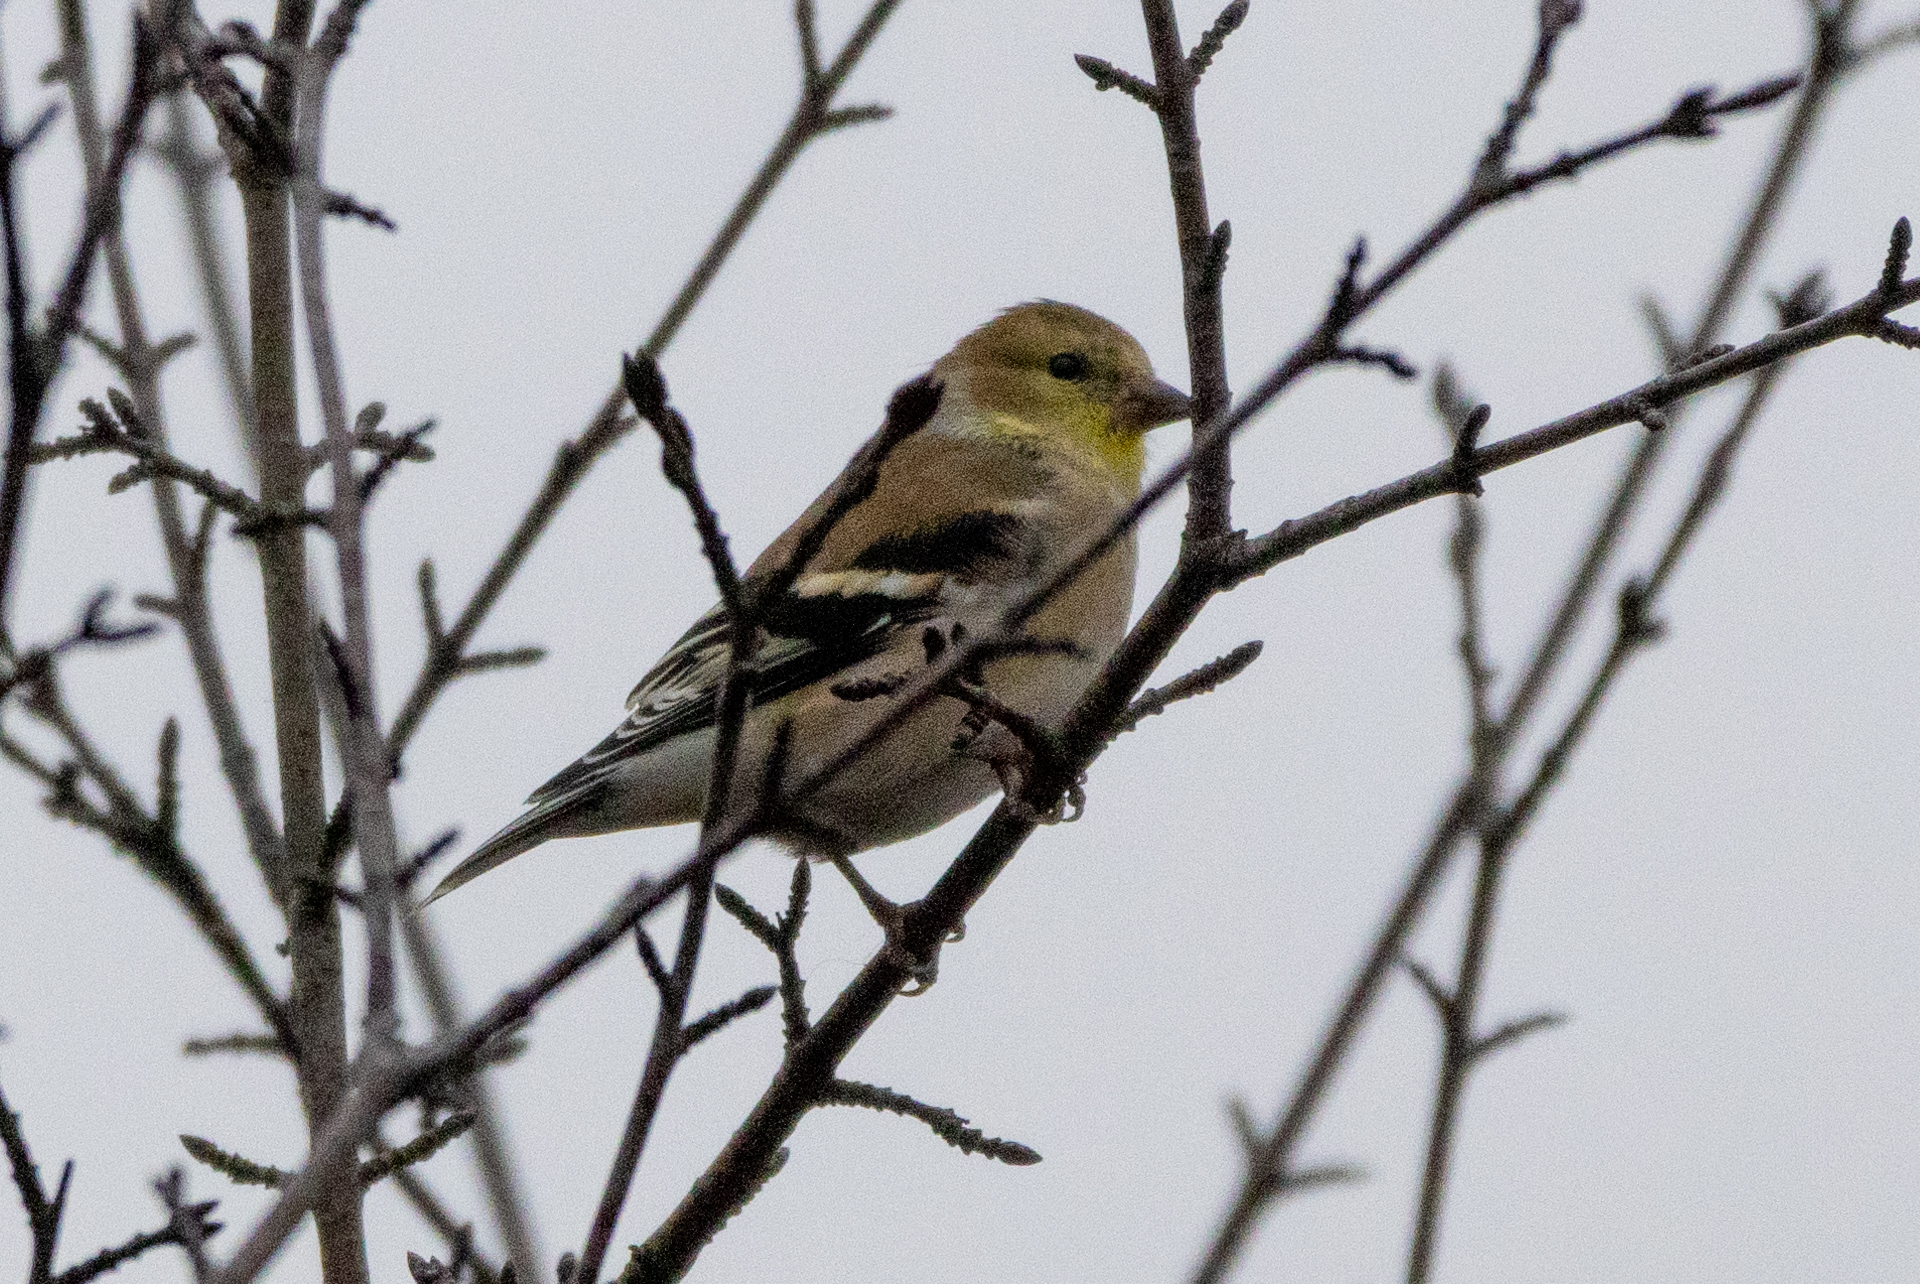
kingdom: Animalia
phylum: Chordata
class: Aves
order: Passeriformes
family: Fringillidae
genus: Spinus
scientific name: Spinus tristis
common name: American goldfinch
